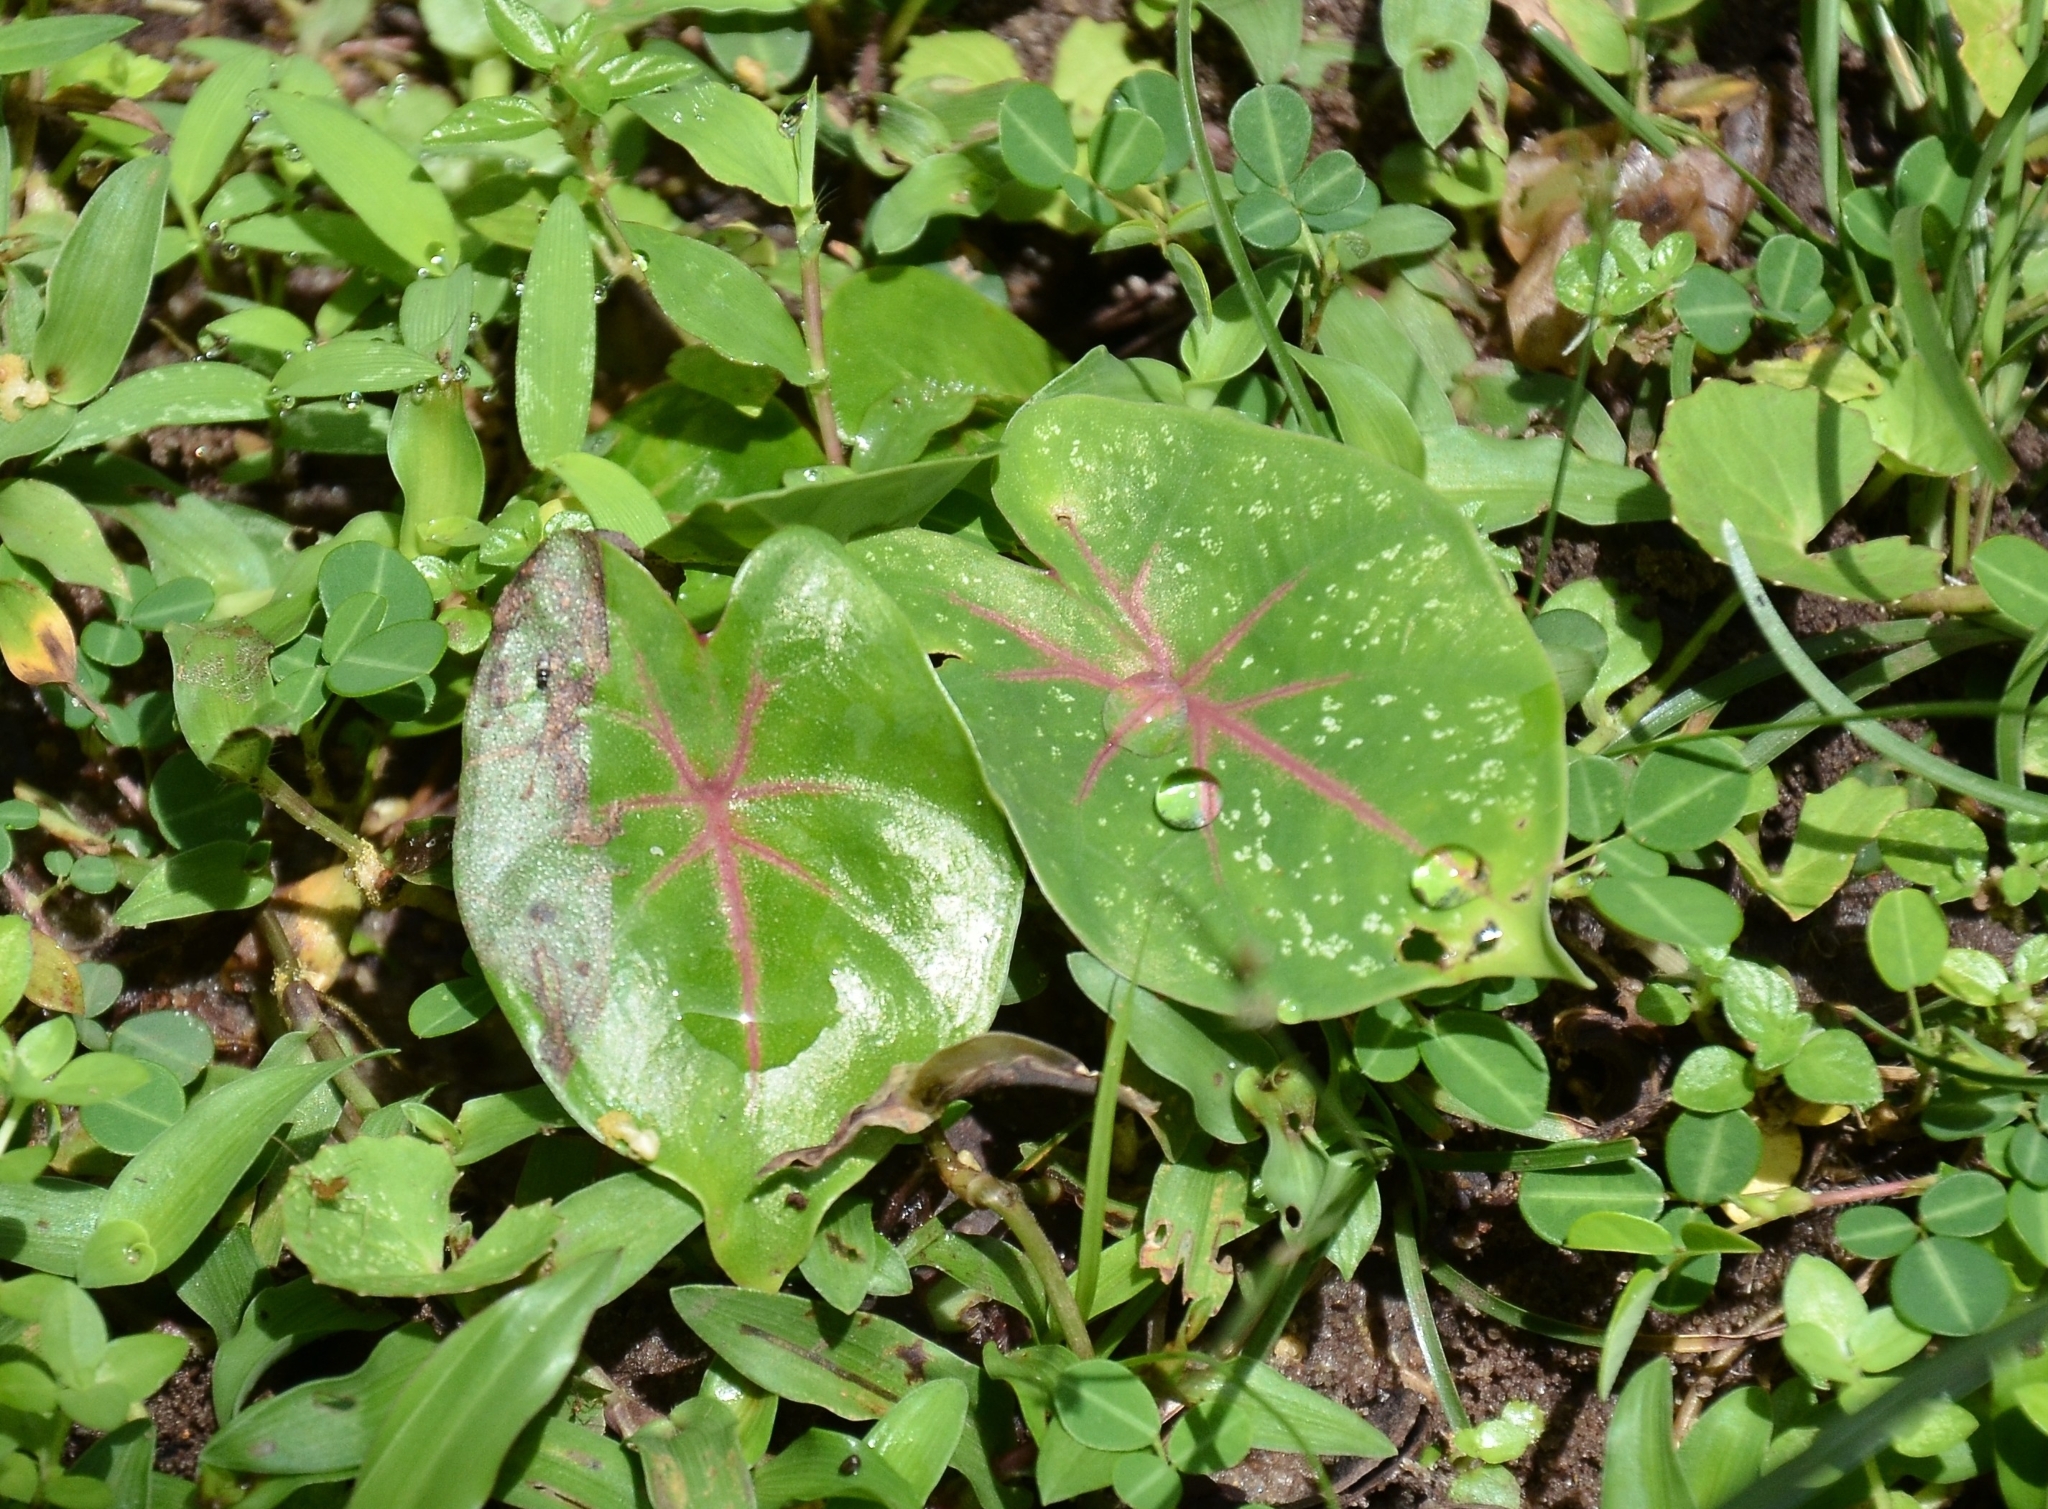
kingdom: Plantae
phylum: Tracheophyta
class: Liliopsida
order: Alismatales
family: Araceae
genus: Caladium
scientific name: Caladium bicolor
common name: Artist's pallet
